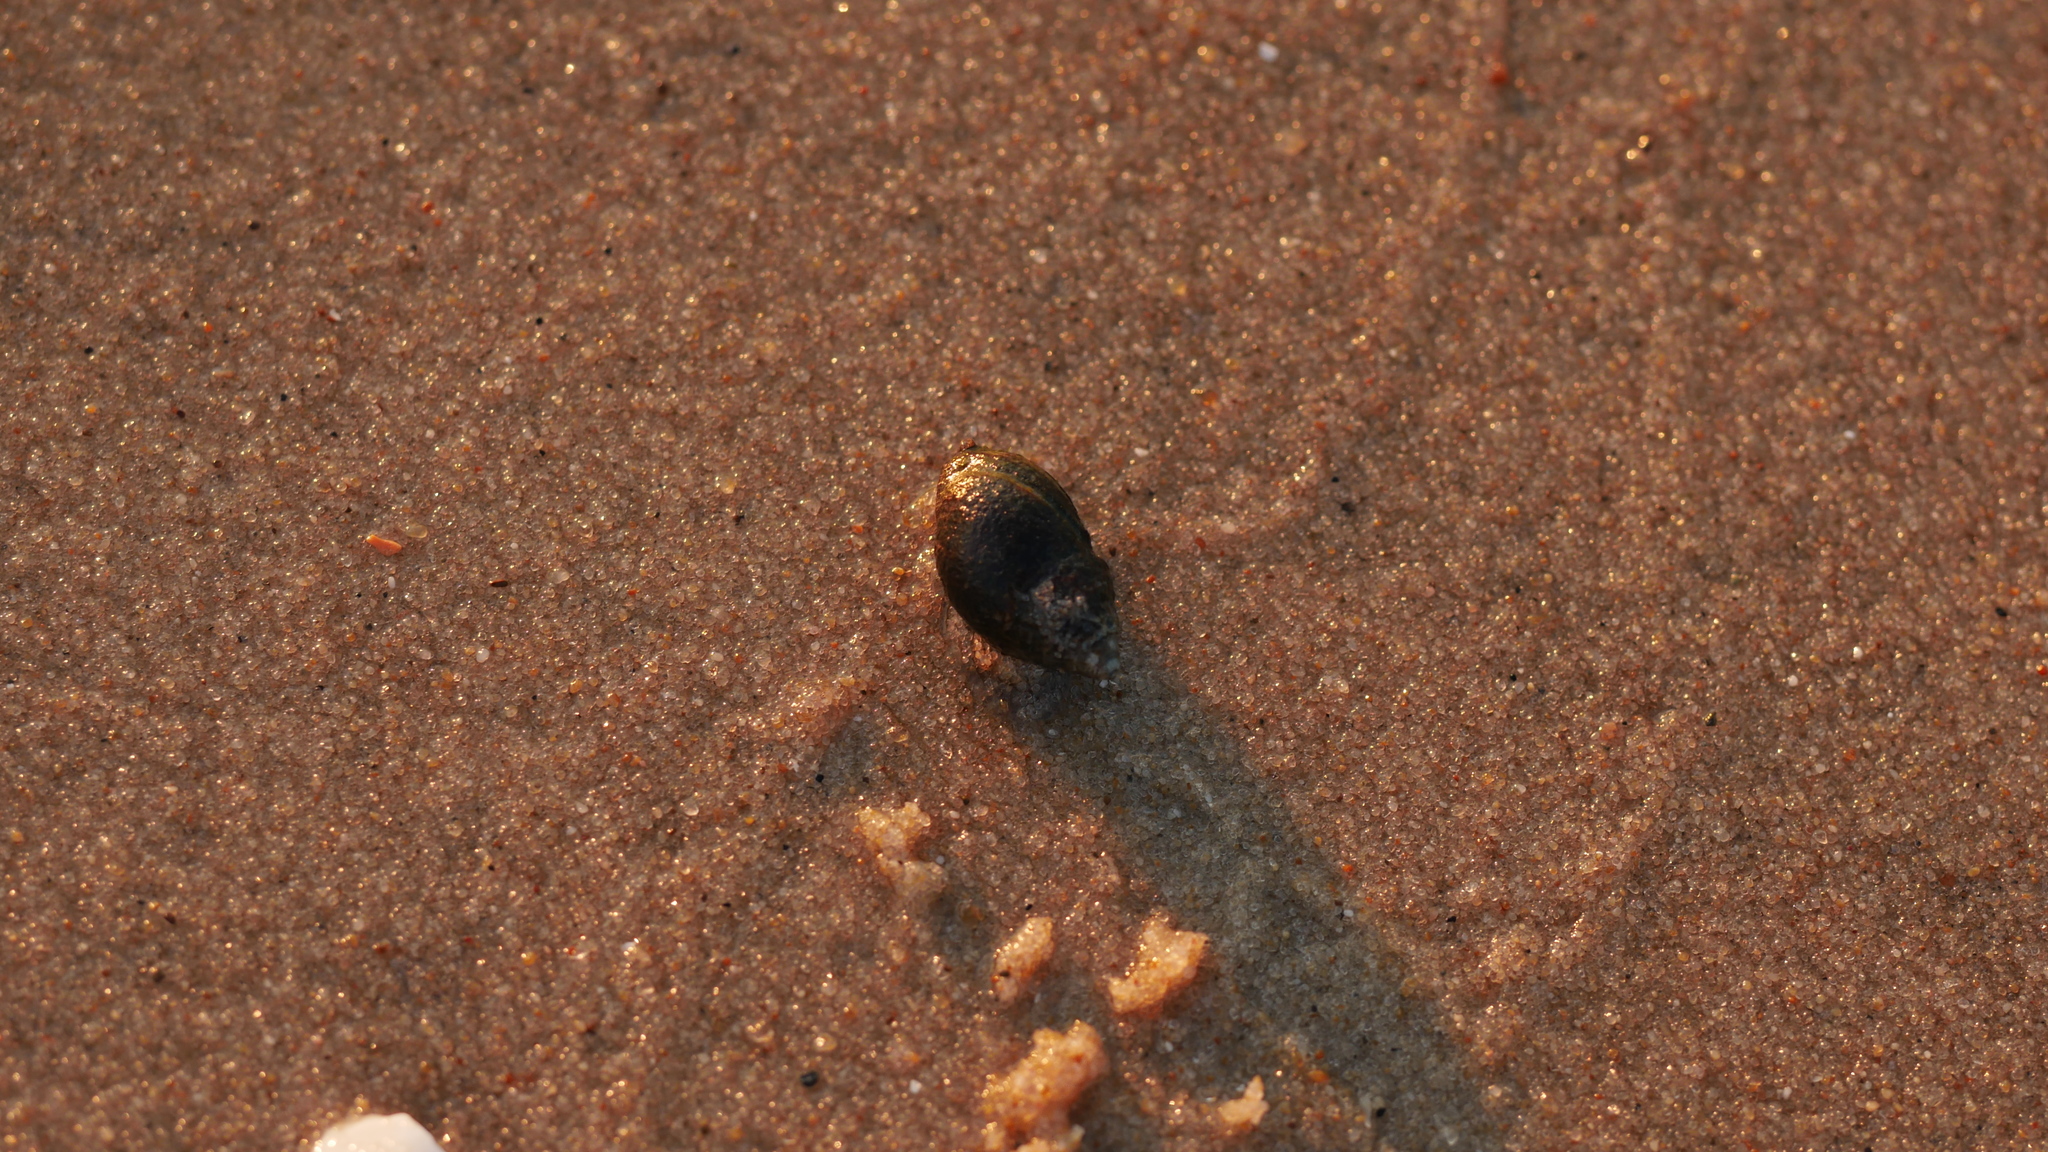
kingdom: Animalia
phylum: Mollusca
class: Gastropoda
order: Neogastropoda
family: Nassariidae
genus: Ilyanassa
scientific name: Ilyanassa obsoleta
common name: Eastern mudsnail
